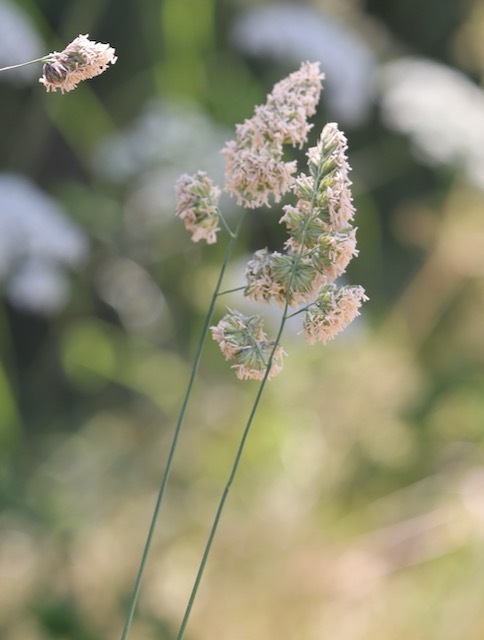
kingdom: Plantae
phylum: Tracheophyta
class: Liliopsida
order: Poales
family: Poaceae
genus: Dactylis
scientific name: Dactylis glomerata
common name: Orchardgrass
